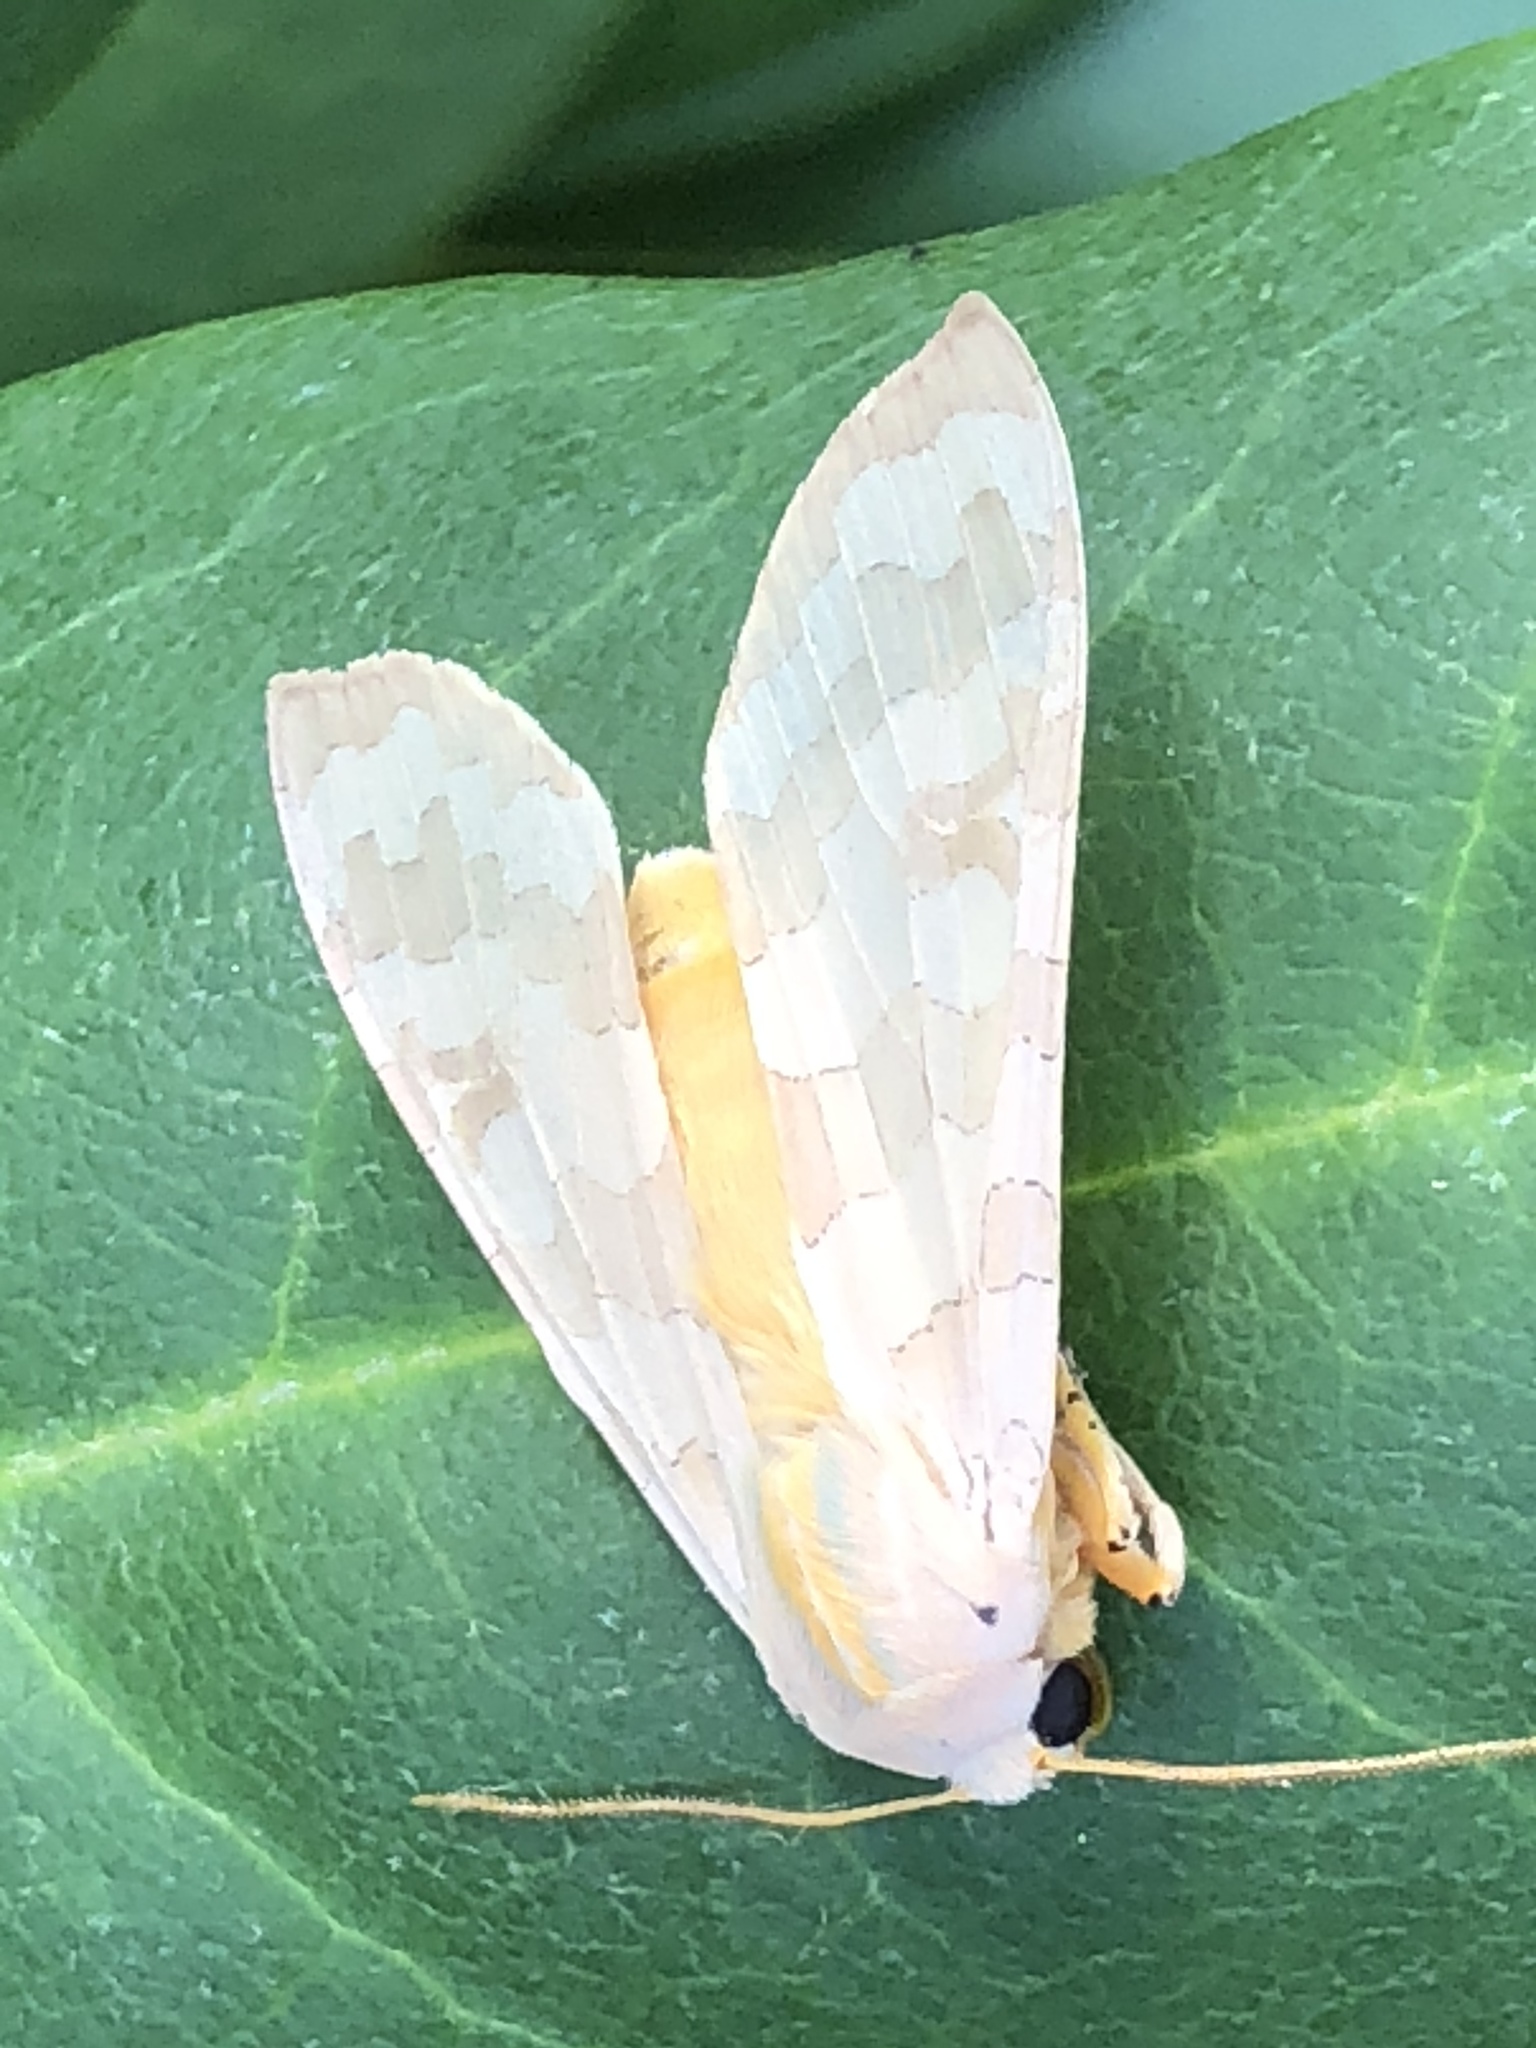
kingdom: Animalia
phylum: Arthropoda
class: Insecta
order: Lepidoptera
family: Erebidae
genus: Halysidota
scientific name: Halysidota
